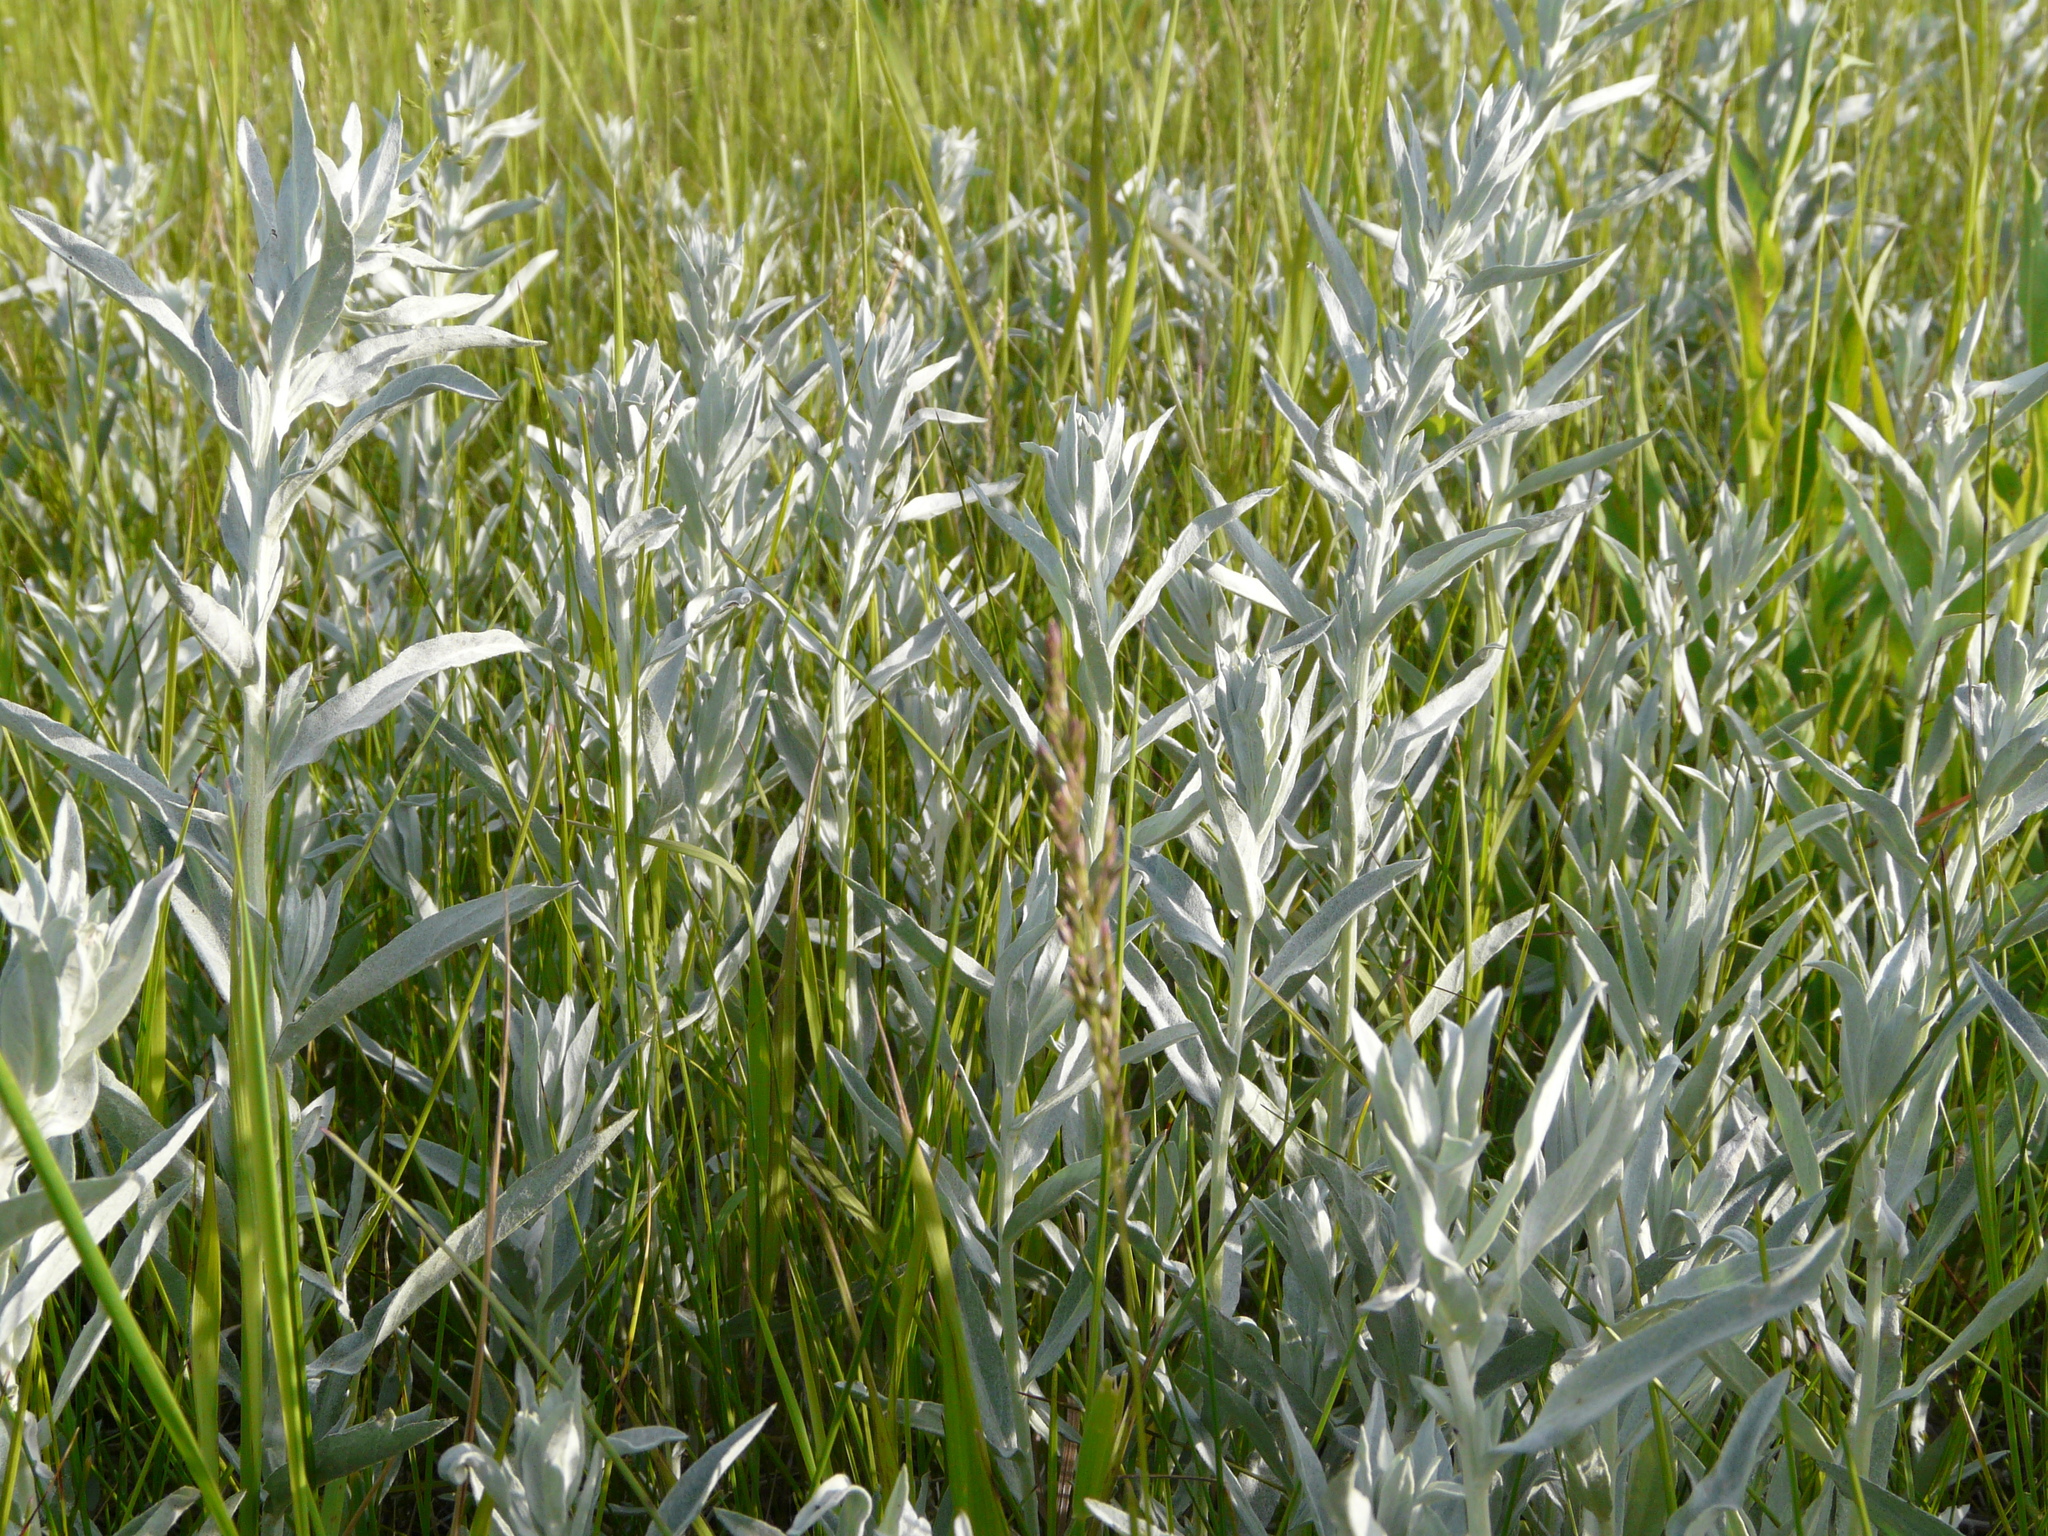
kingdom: Plantae
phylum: Tracheophyta
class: Magnoliopsida
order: Asterales
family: Asteraceae
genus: Artemisia
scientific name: Artemisia ludoviciana
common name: Western mugwort
